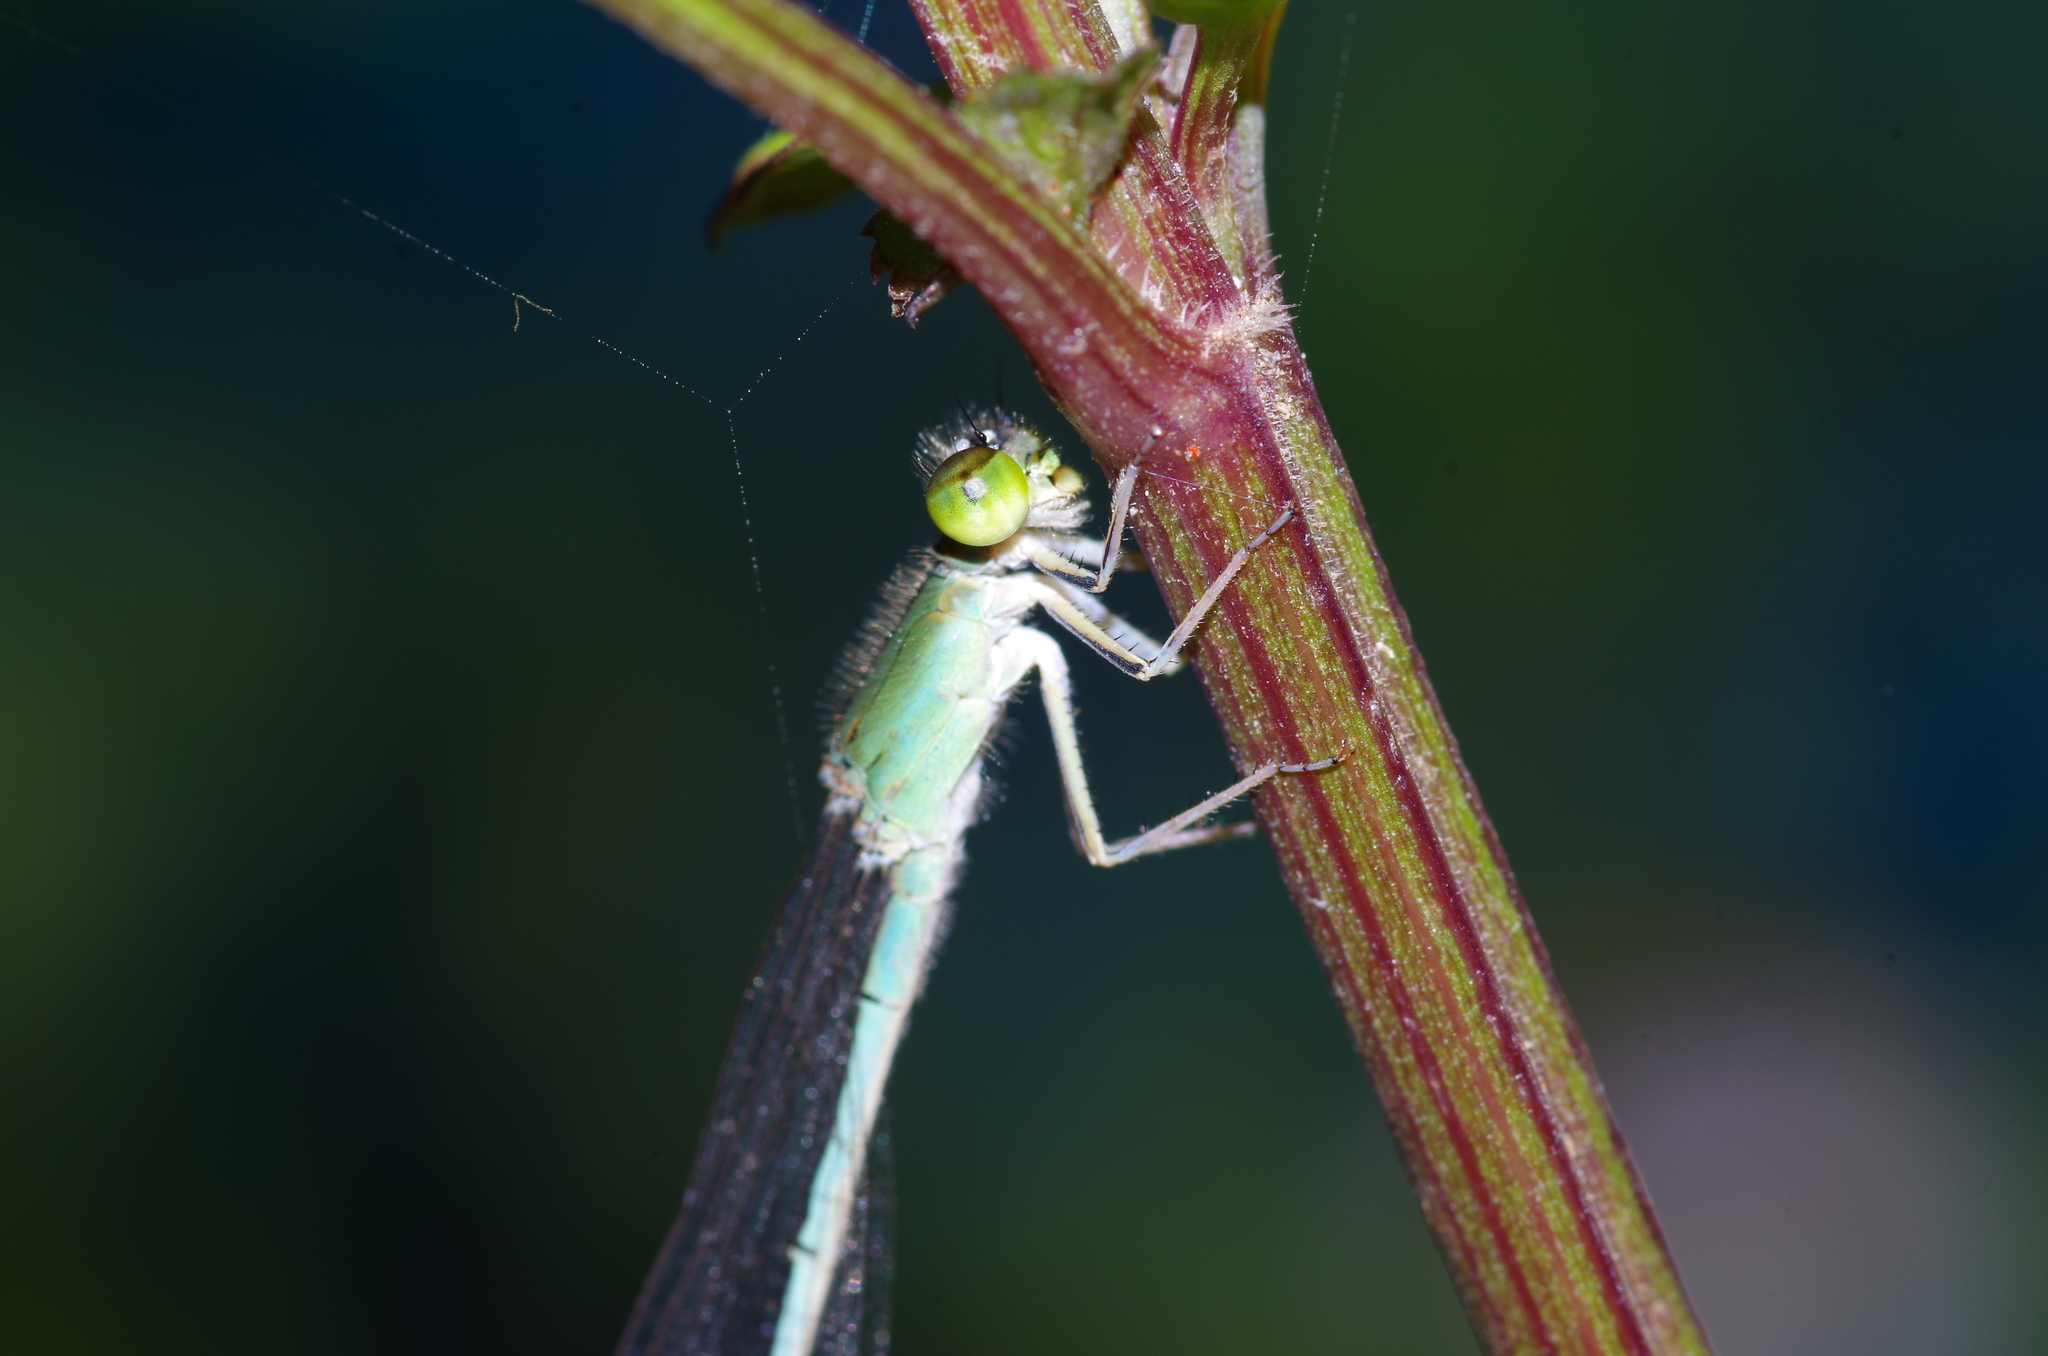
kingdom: Animalia
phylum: Arthropoda
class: Insecta
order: Odonata
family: Coenagrionidae
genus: Ischnura
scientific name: Ischnura asiatica
